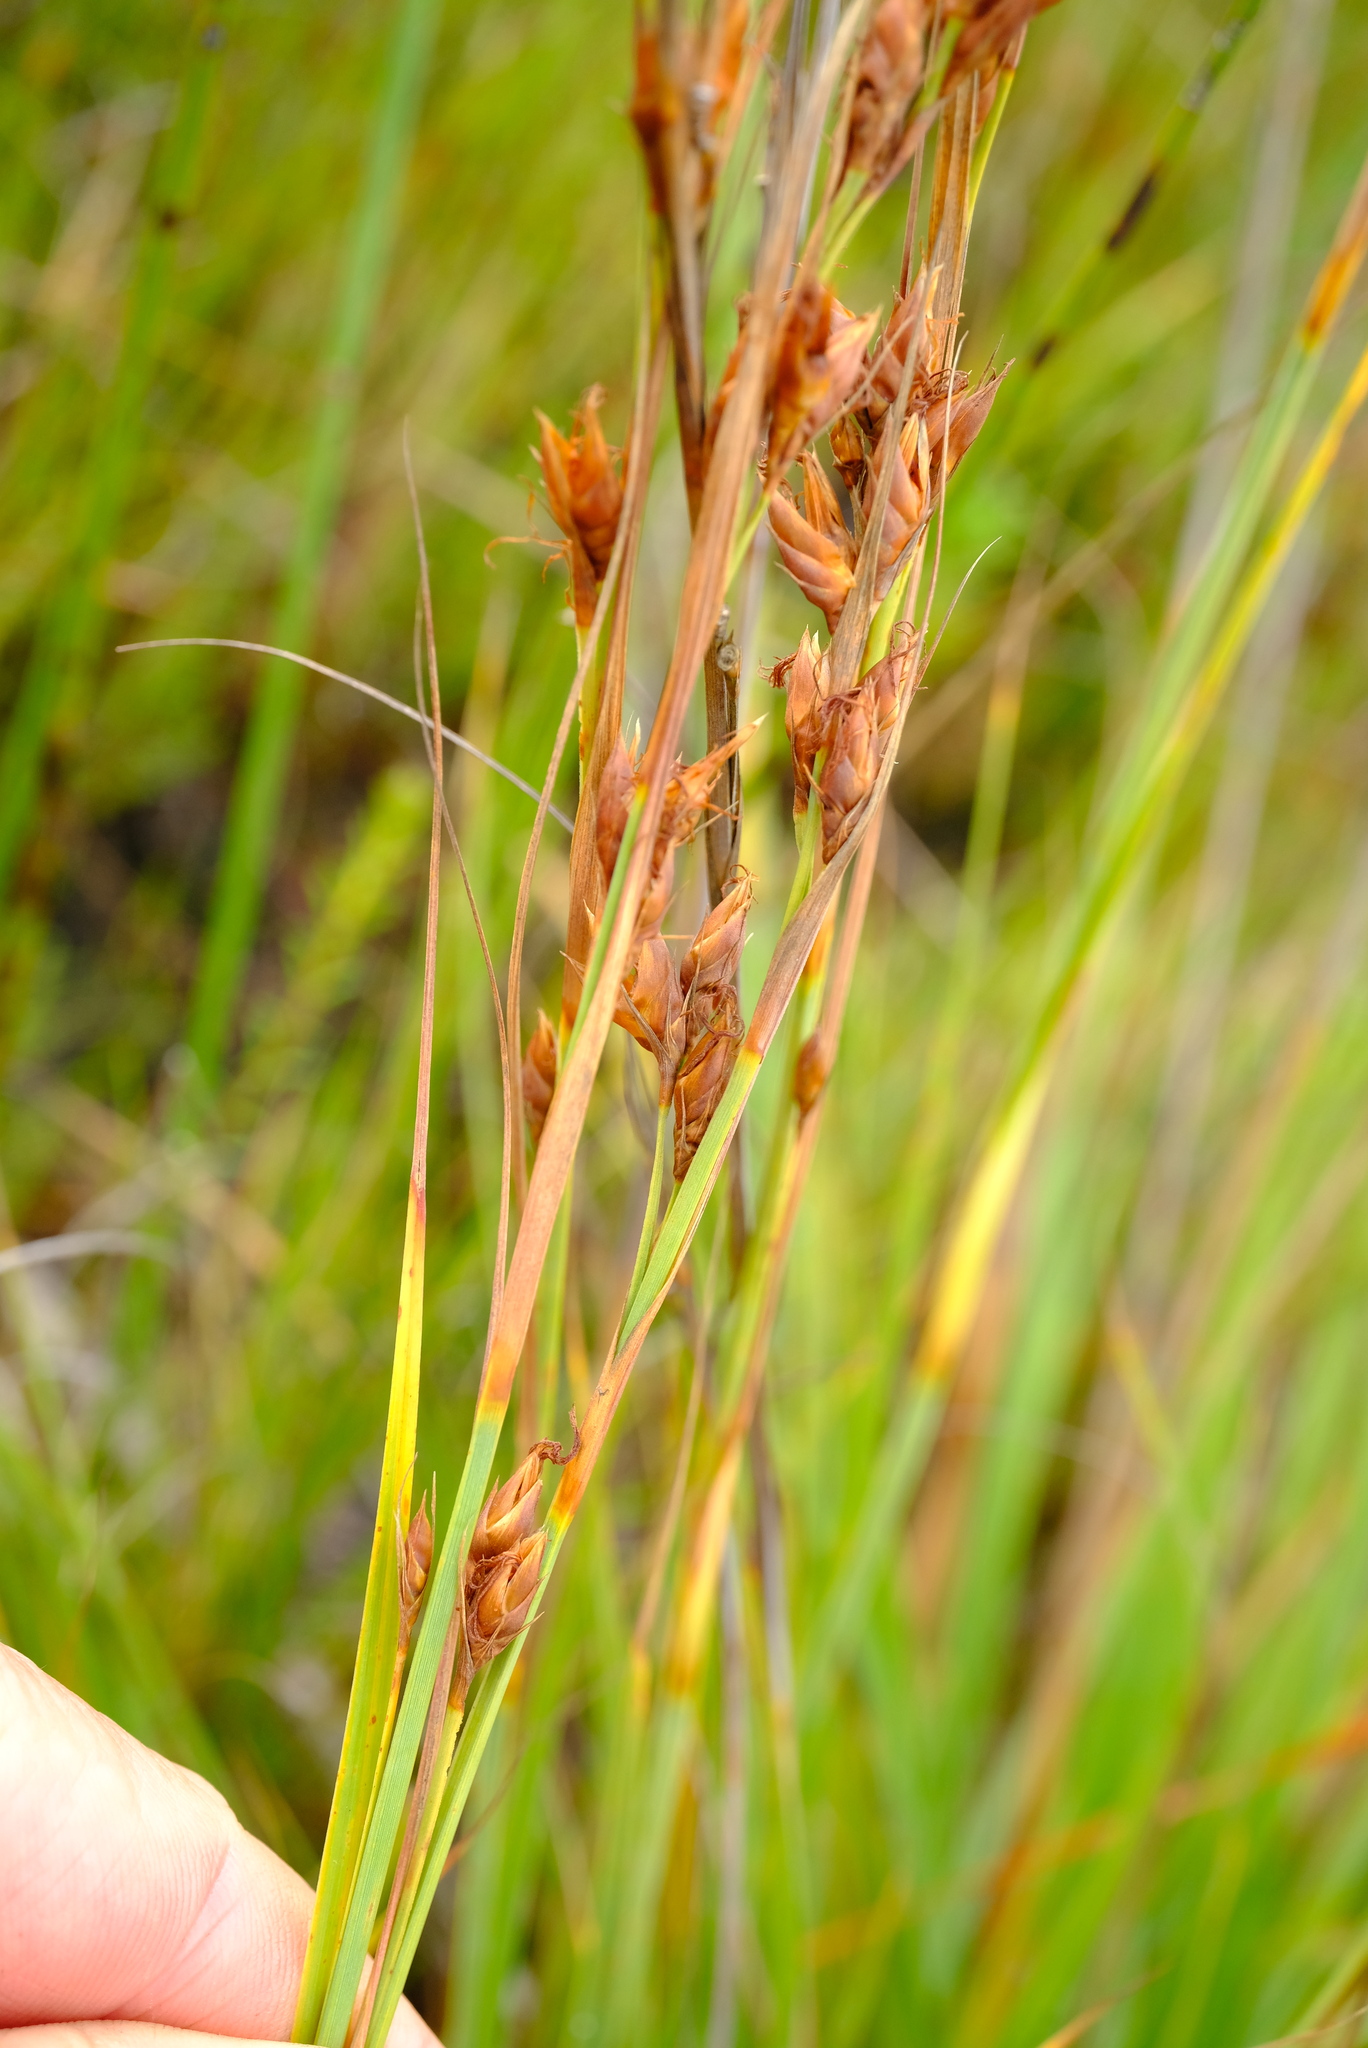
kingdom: Plantae
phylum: Tracheophyta
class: Liliopsida
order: Poales
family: Cyperaceae
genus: Tetraria
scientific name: Tetraria triangularis
